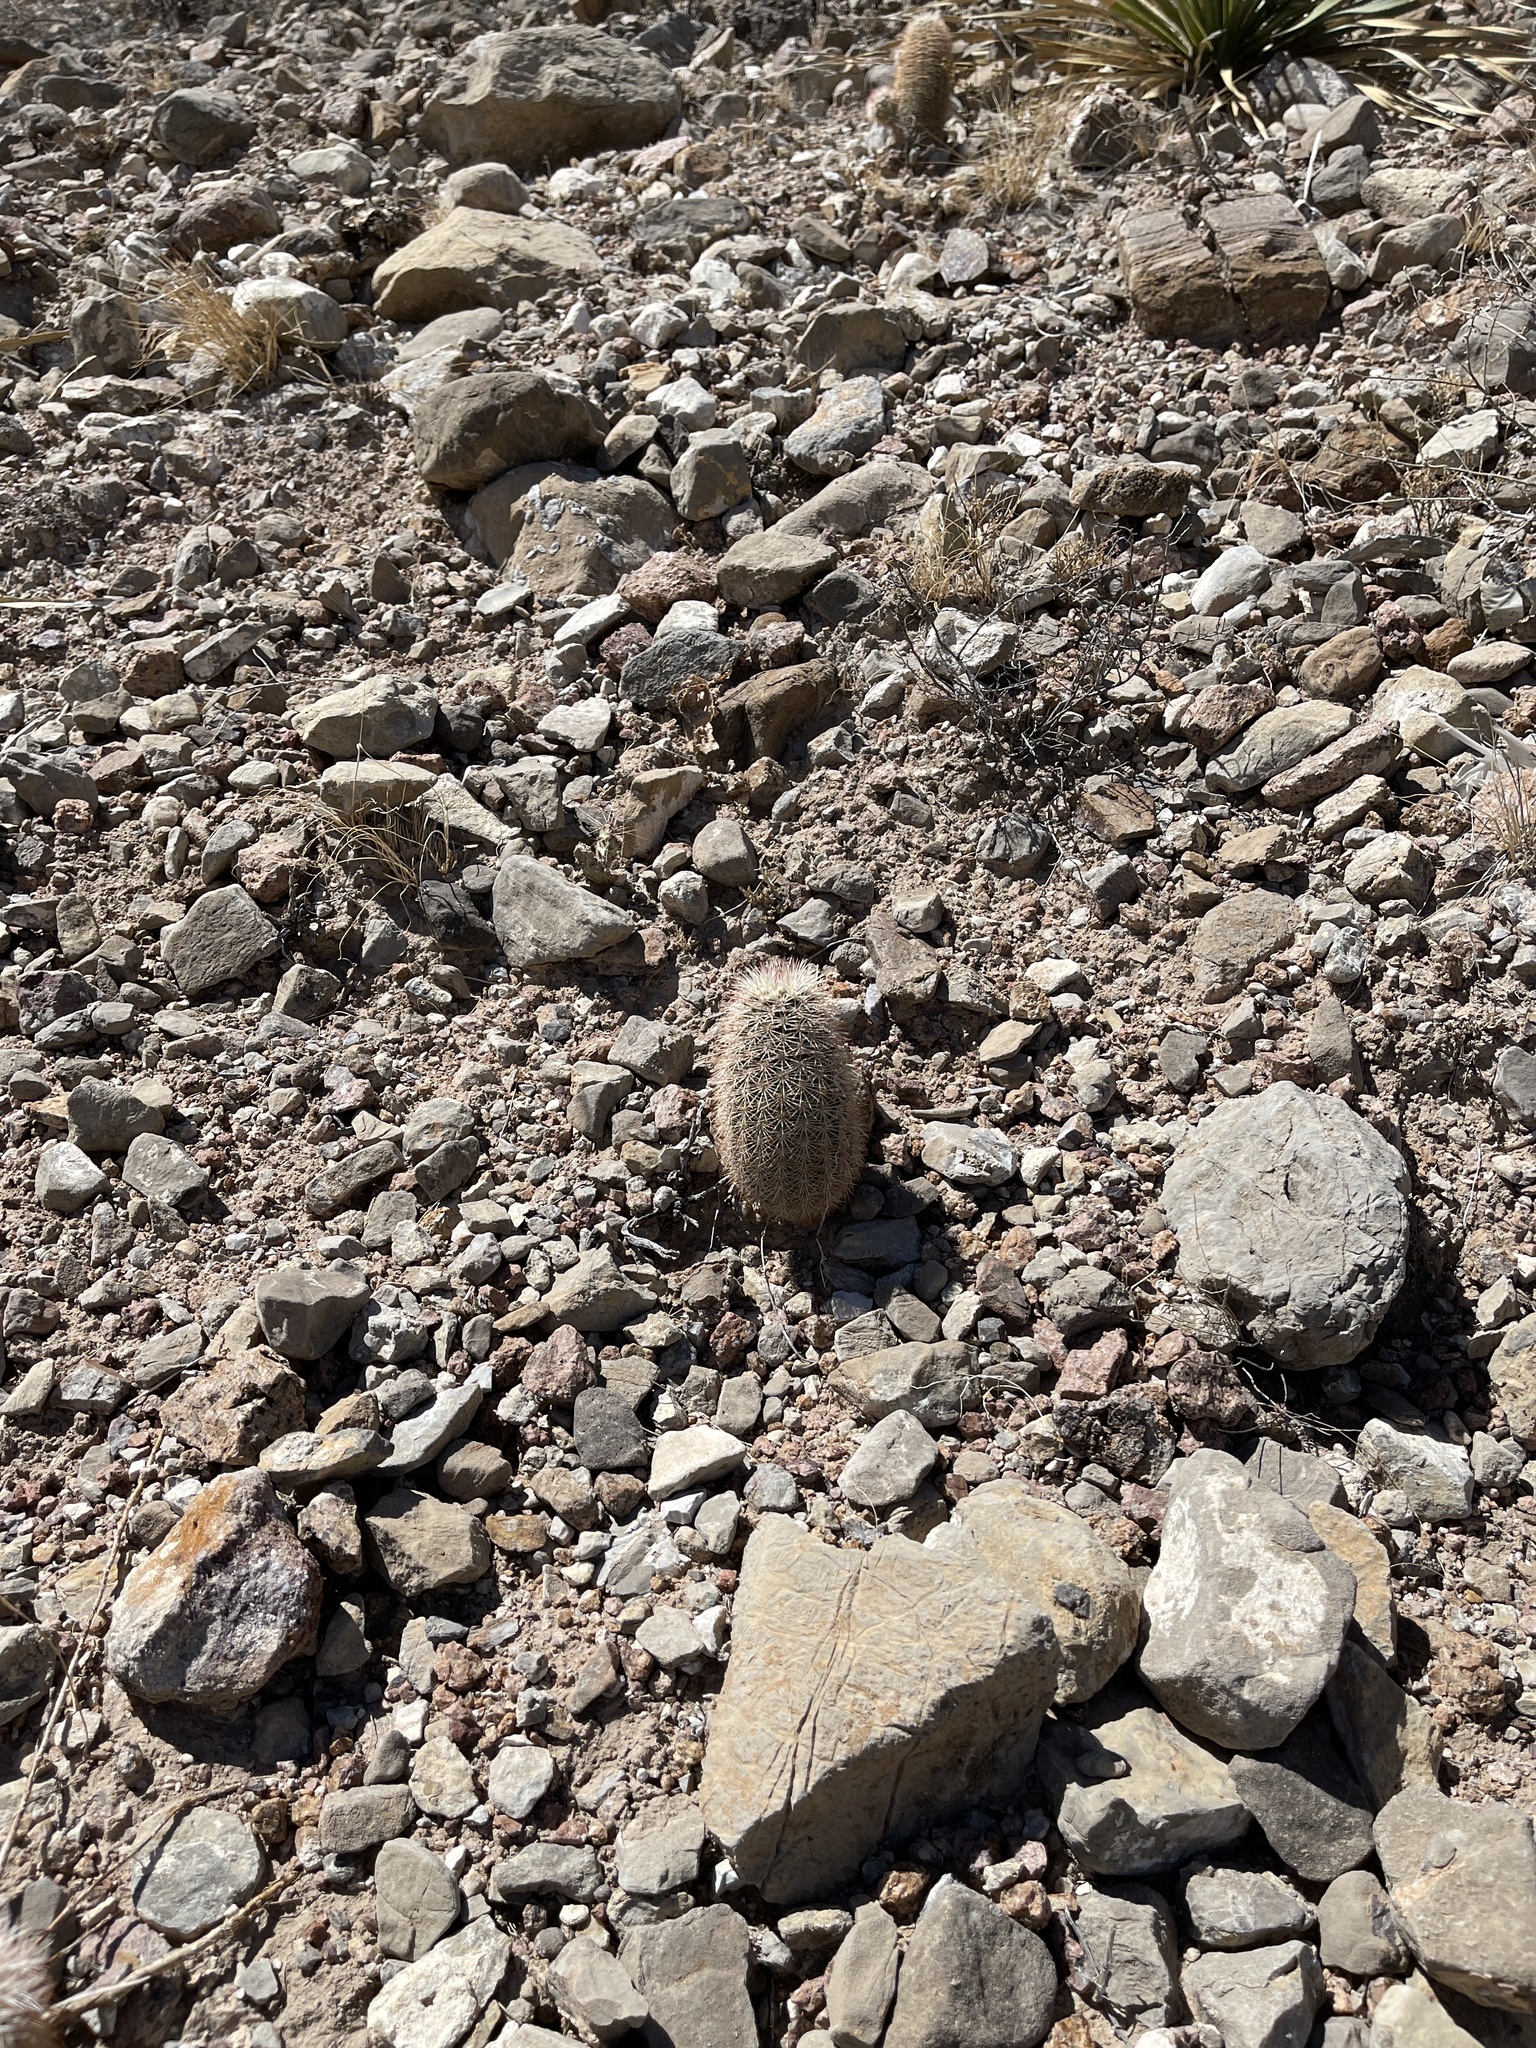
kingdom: Plantae
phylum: Tracheophyta
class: Magnoliopsida
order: Caryophyllales
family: Cactaceae
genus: Echinocereus
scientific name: Echinocereus dasyacanthus
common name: Spiny hedgehog cactus
